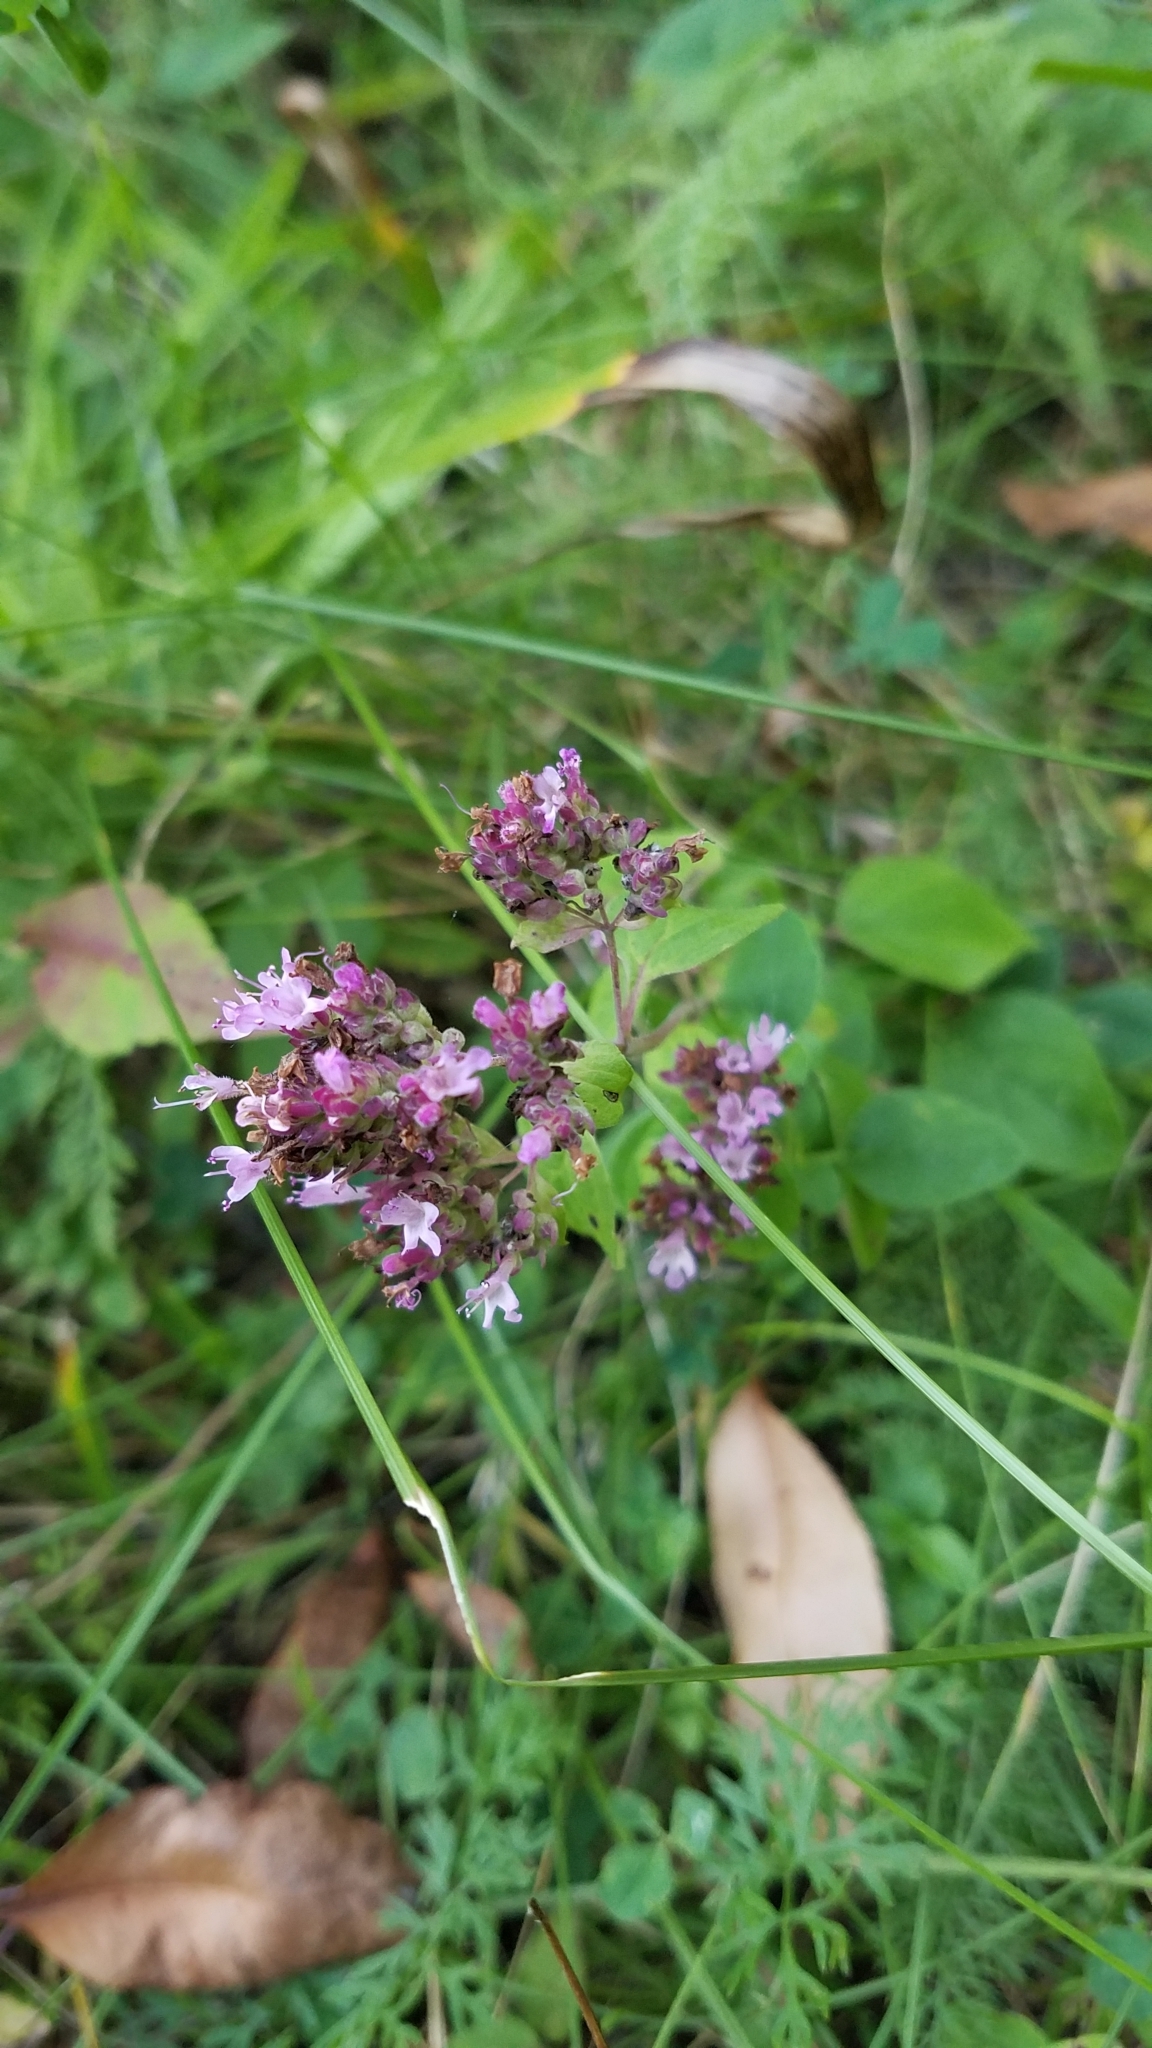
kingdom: Plantae
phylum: Tracheophyta
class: Magnoliopsida
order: Lamiales
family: Lamiaceae
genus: Origanum
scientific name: Origanum vulgare
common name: Wild marjoram
